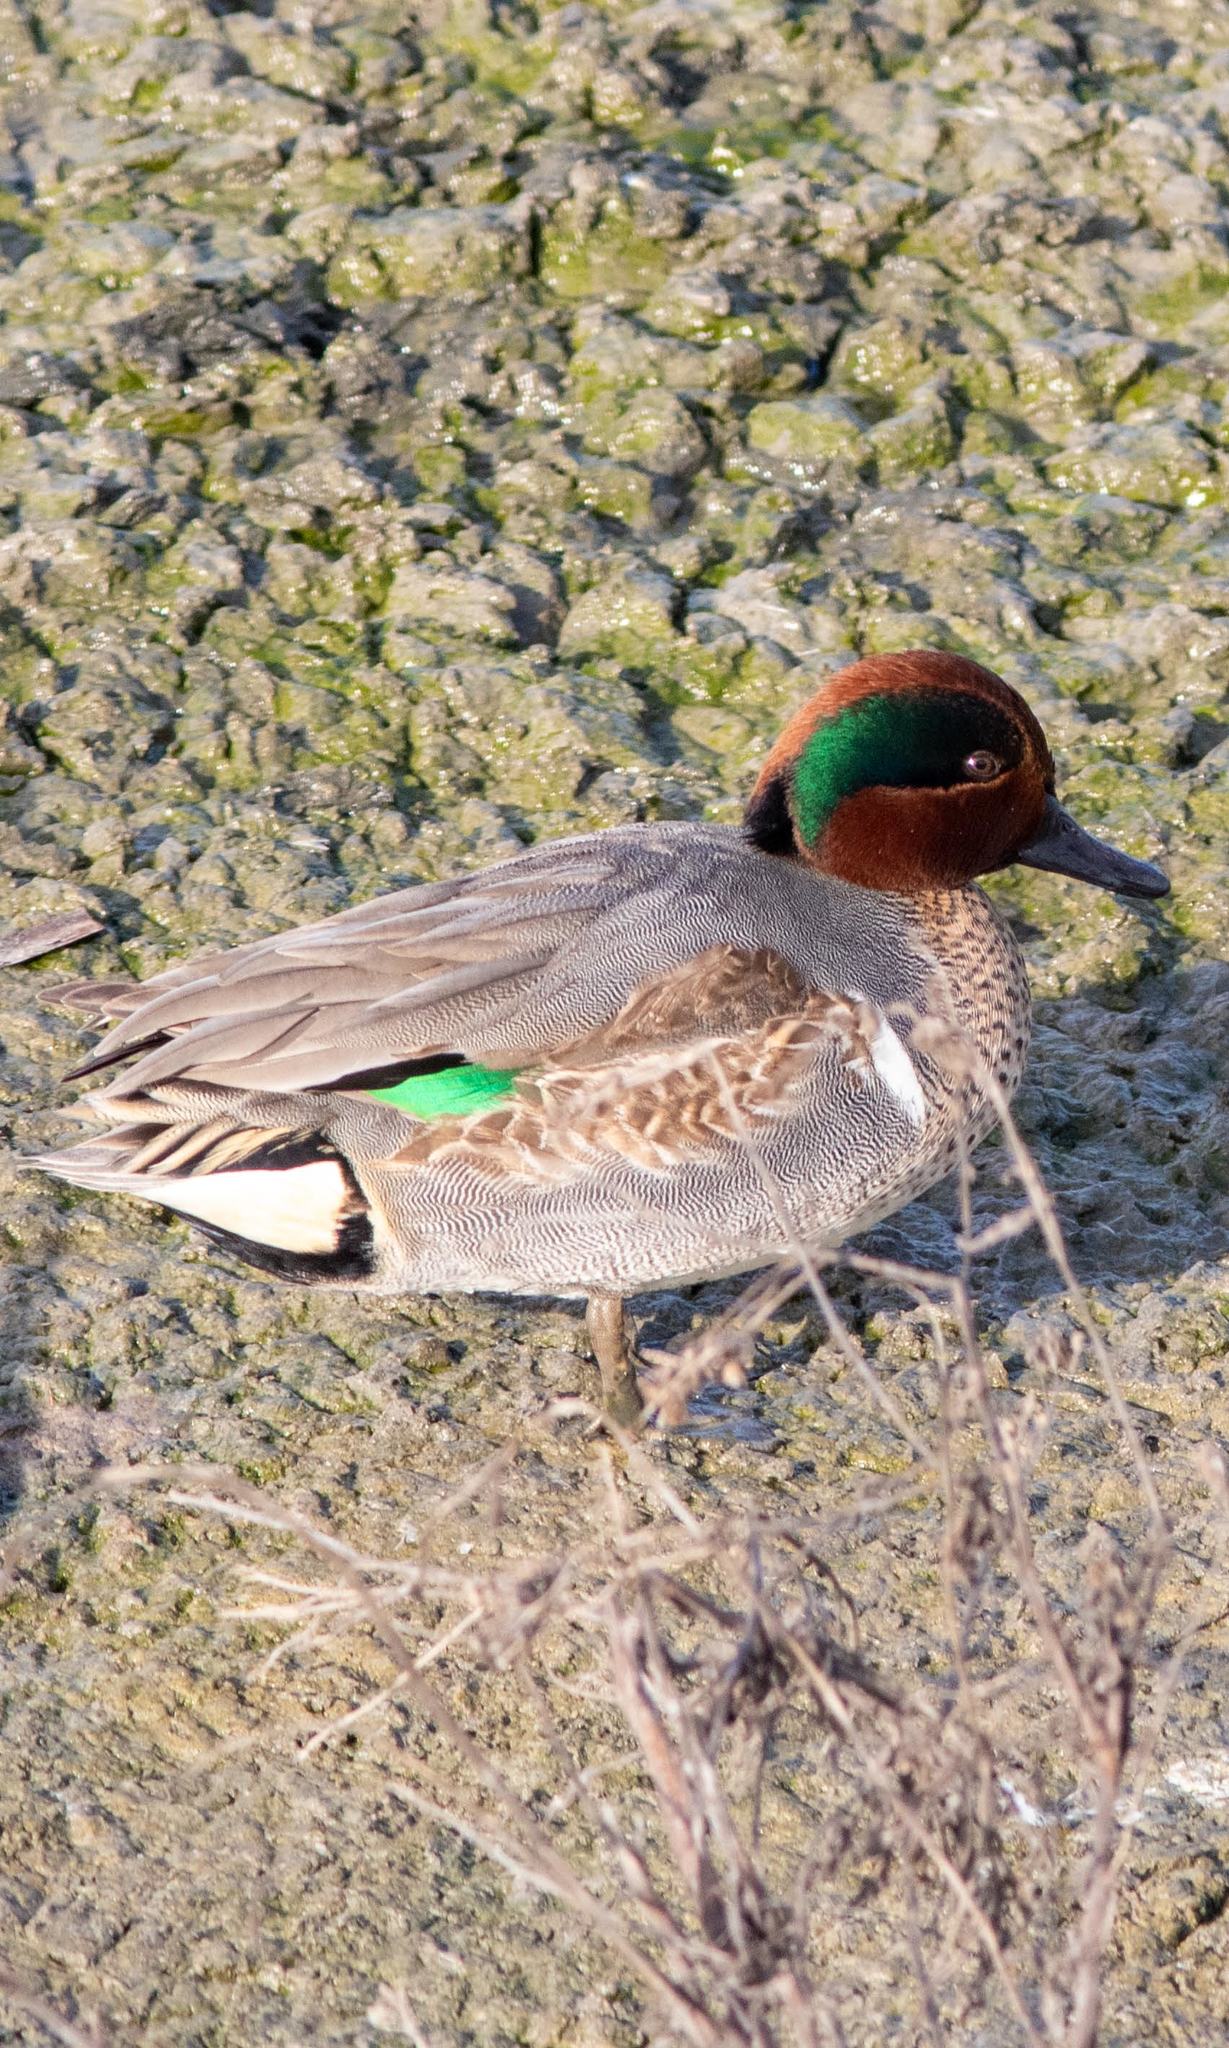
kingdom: Animalia
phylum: Chordata
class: Aves
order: Anseriformes
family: Anatidae
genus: Anas
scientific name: Anas carolinensis
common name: Green-winged teal
